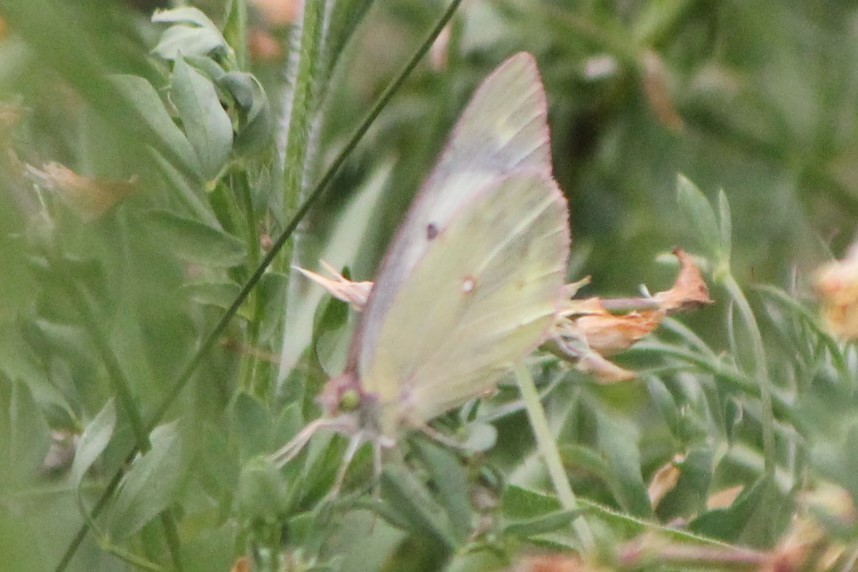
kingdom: Animalia
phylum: Arthropoda
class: Insecta
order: Lepidoptera
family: Pieridae
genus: Colias
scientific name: Colias philodice
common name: Clouded sulphur
